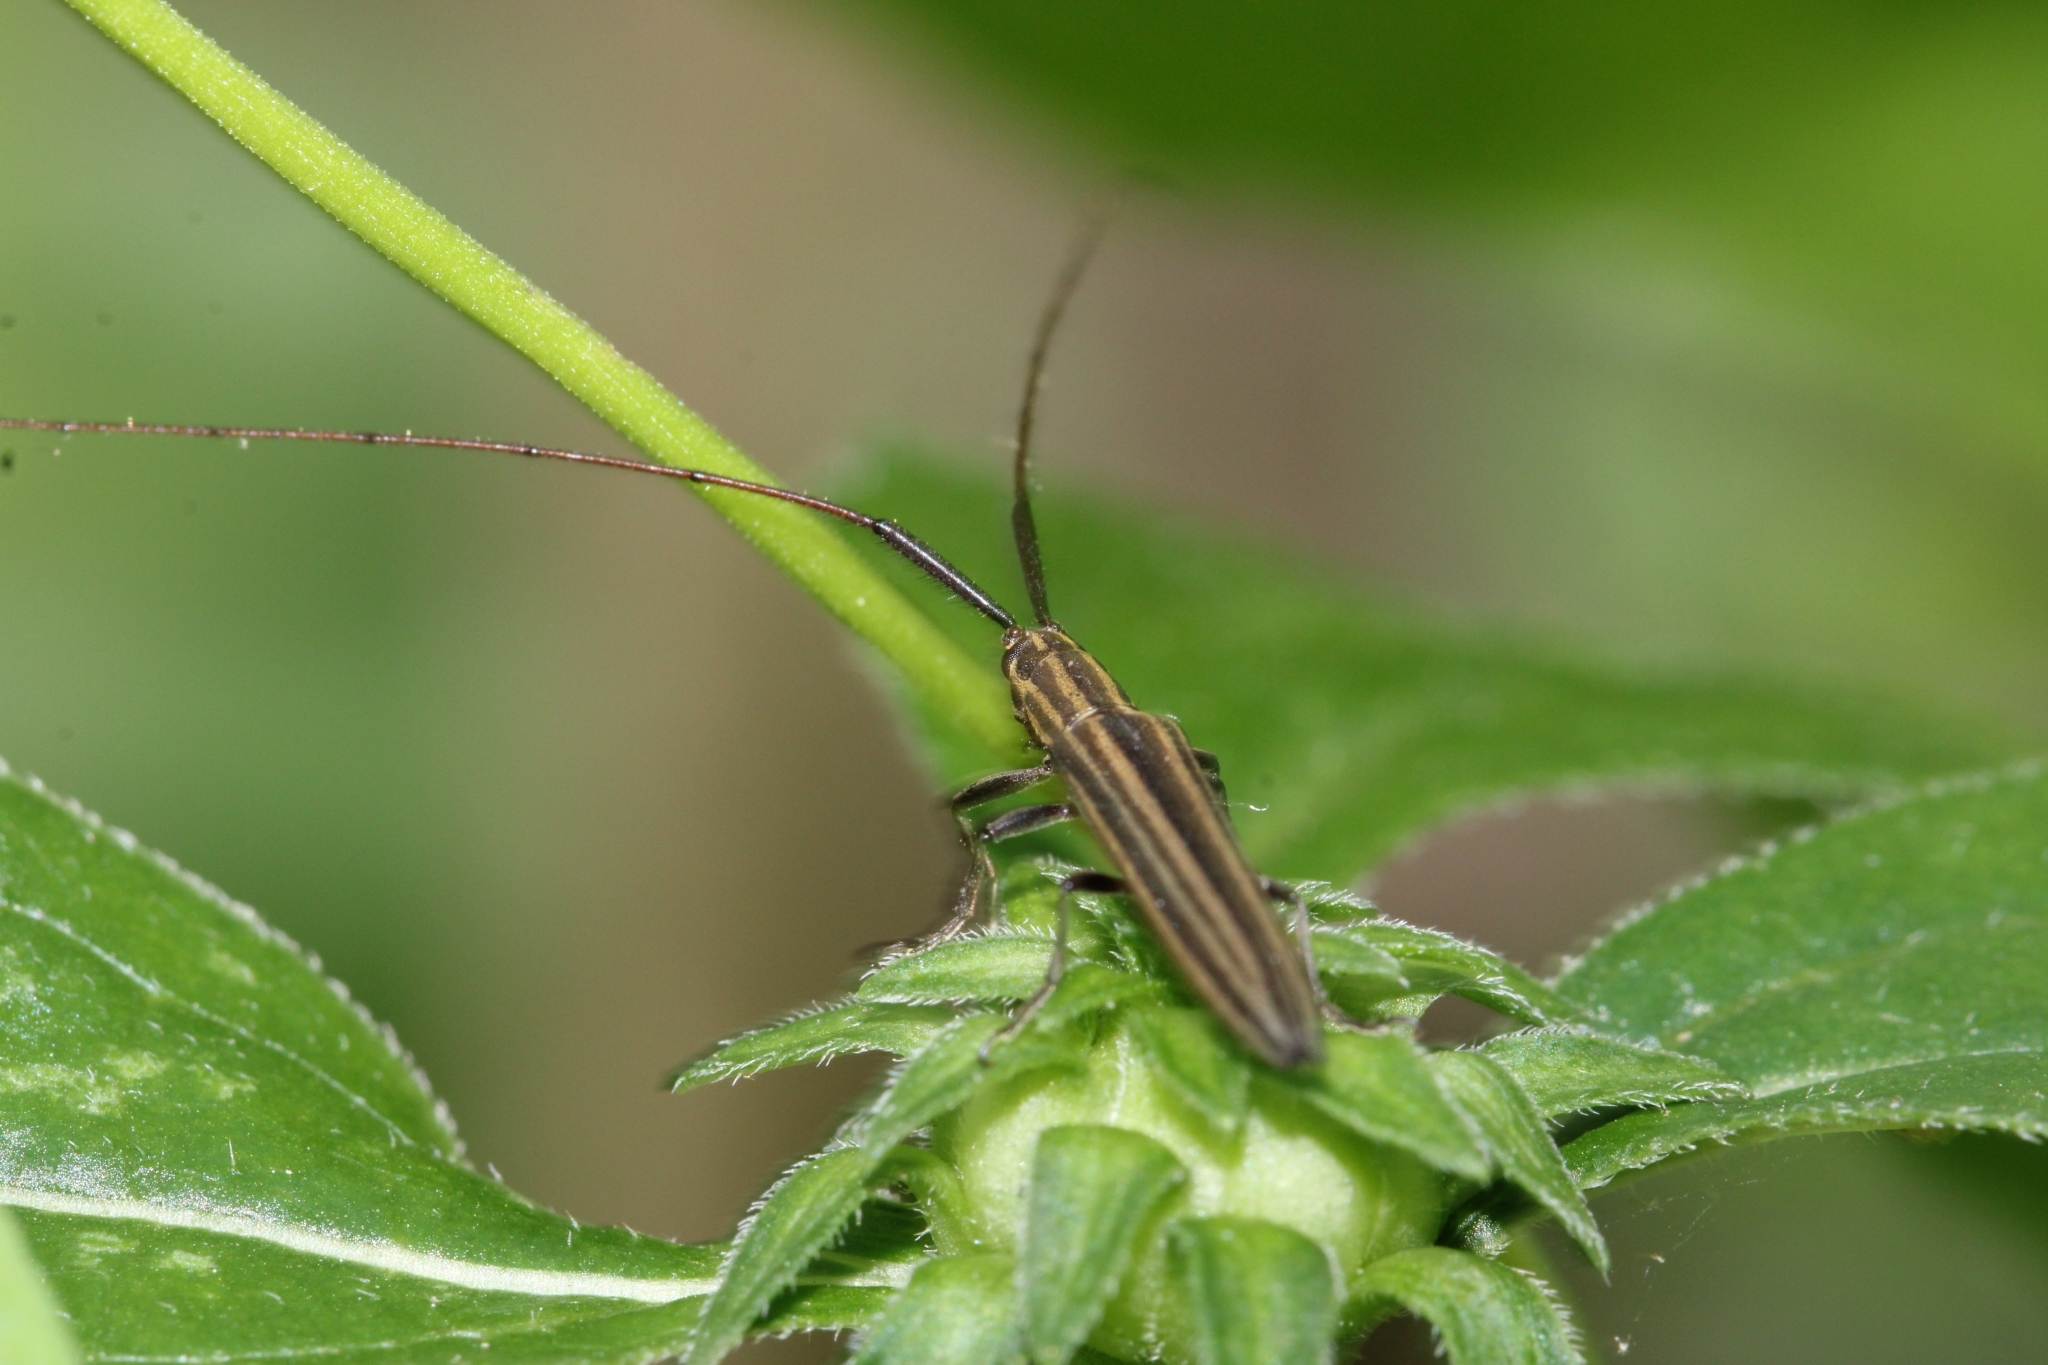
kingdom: Animalia
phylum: Arthropoda
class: Insecta
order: Coleoptera
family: Cerambycidae
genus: Hippopsis
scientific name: Hippopsis
